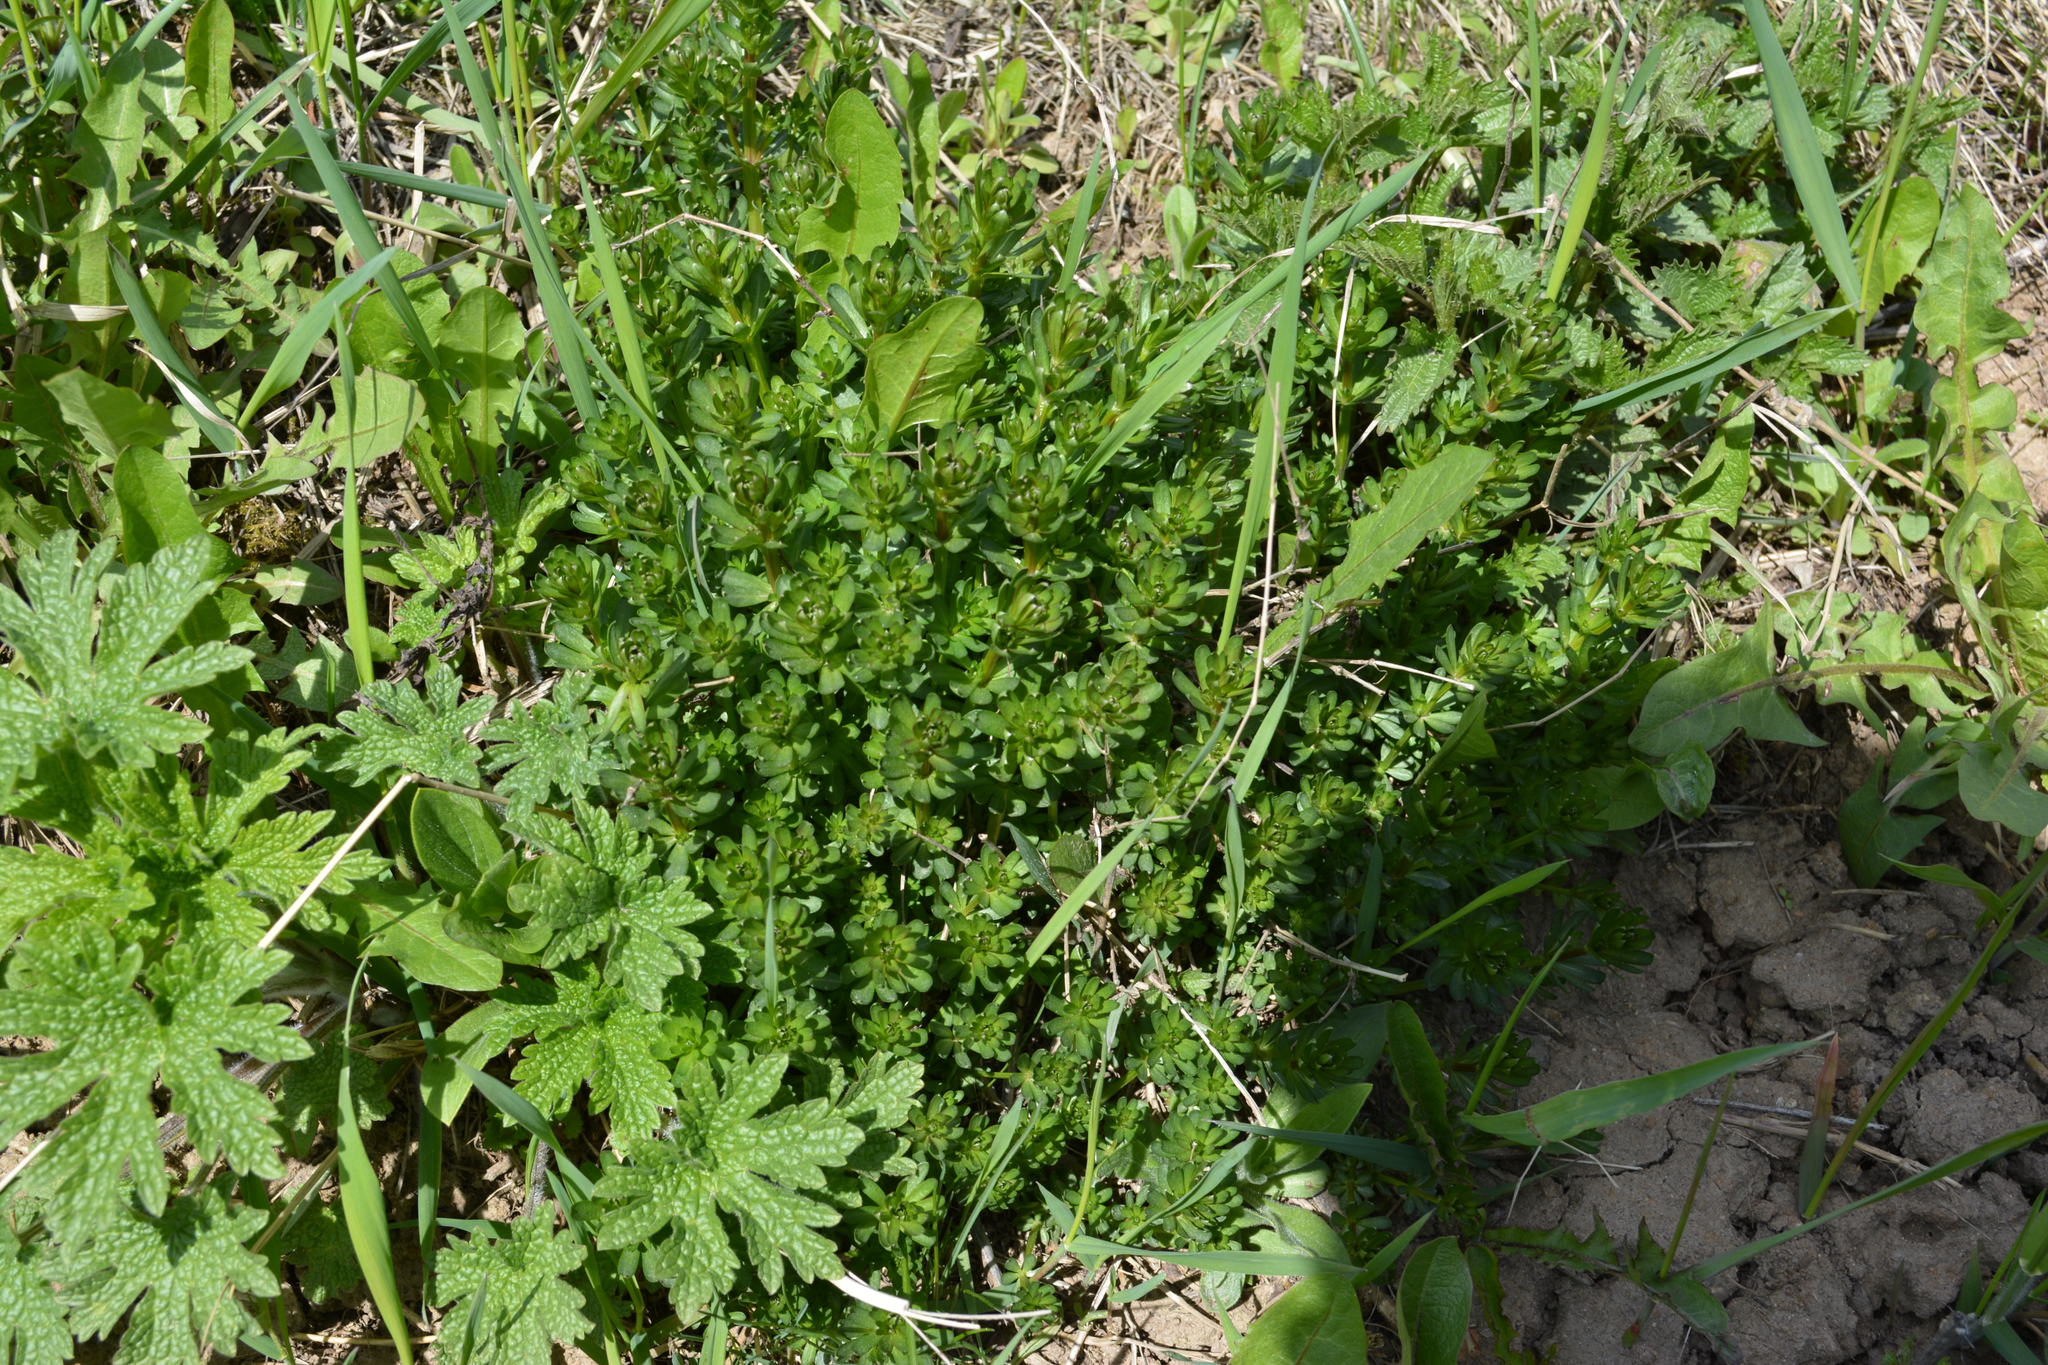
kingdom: Plantae
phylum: Tracheophyta
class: Magnoliopsida
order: Gentianales
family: Rubiaceae
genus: Galium
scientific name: Galium mollugo
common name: Hedge bedstraw
